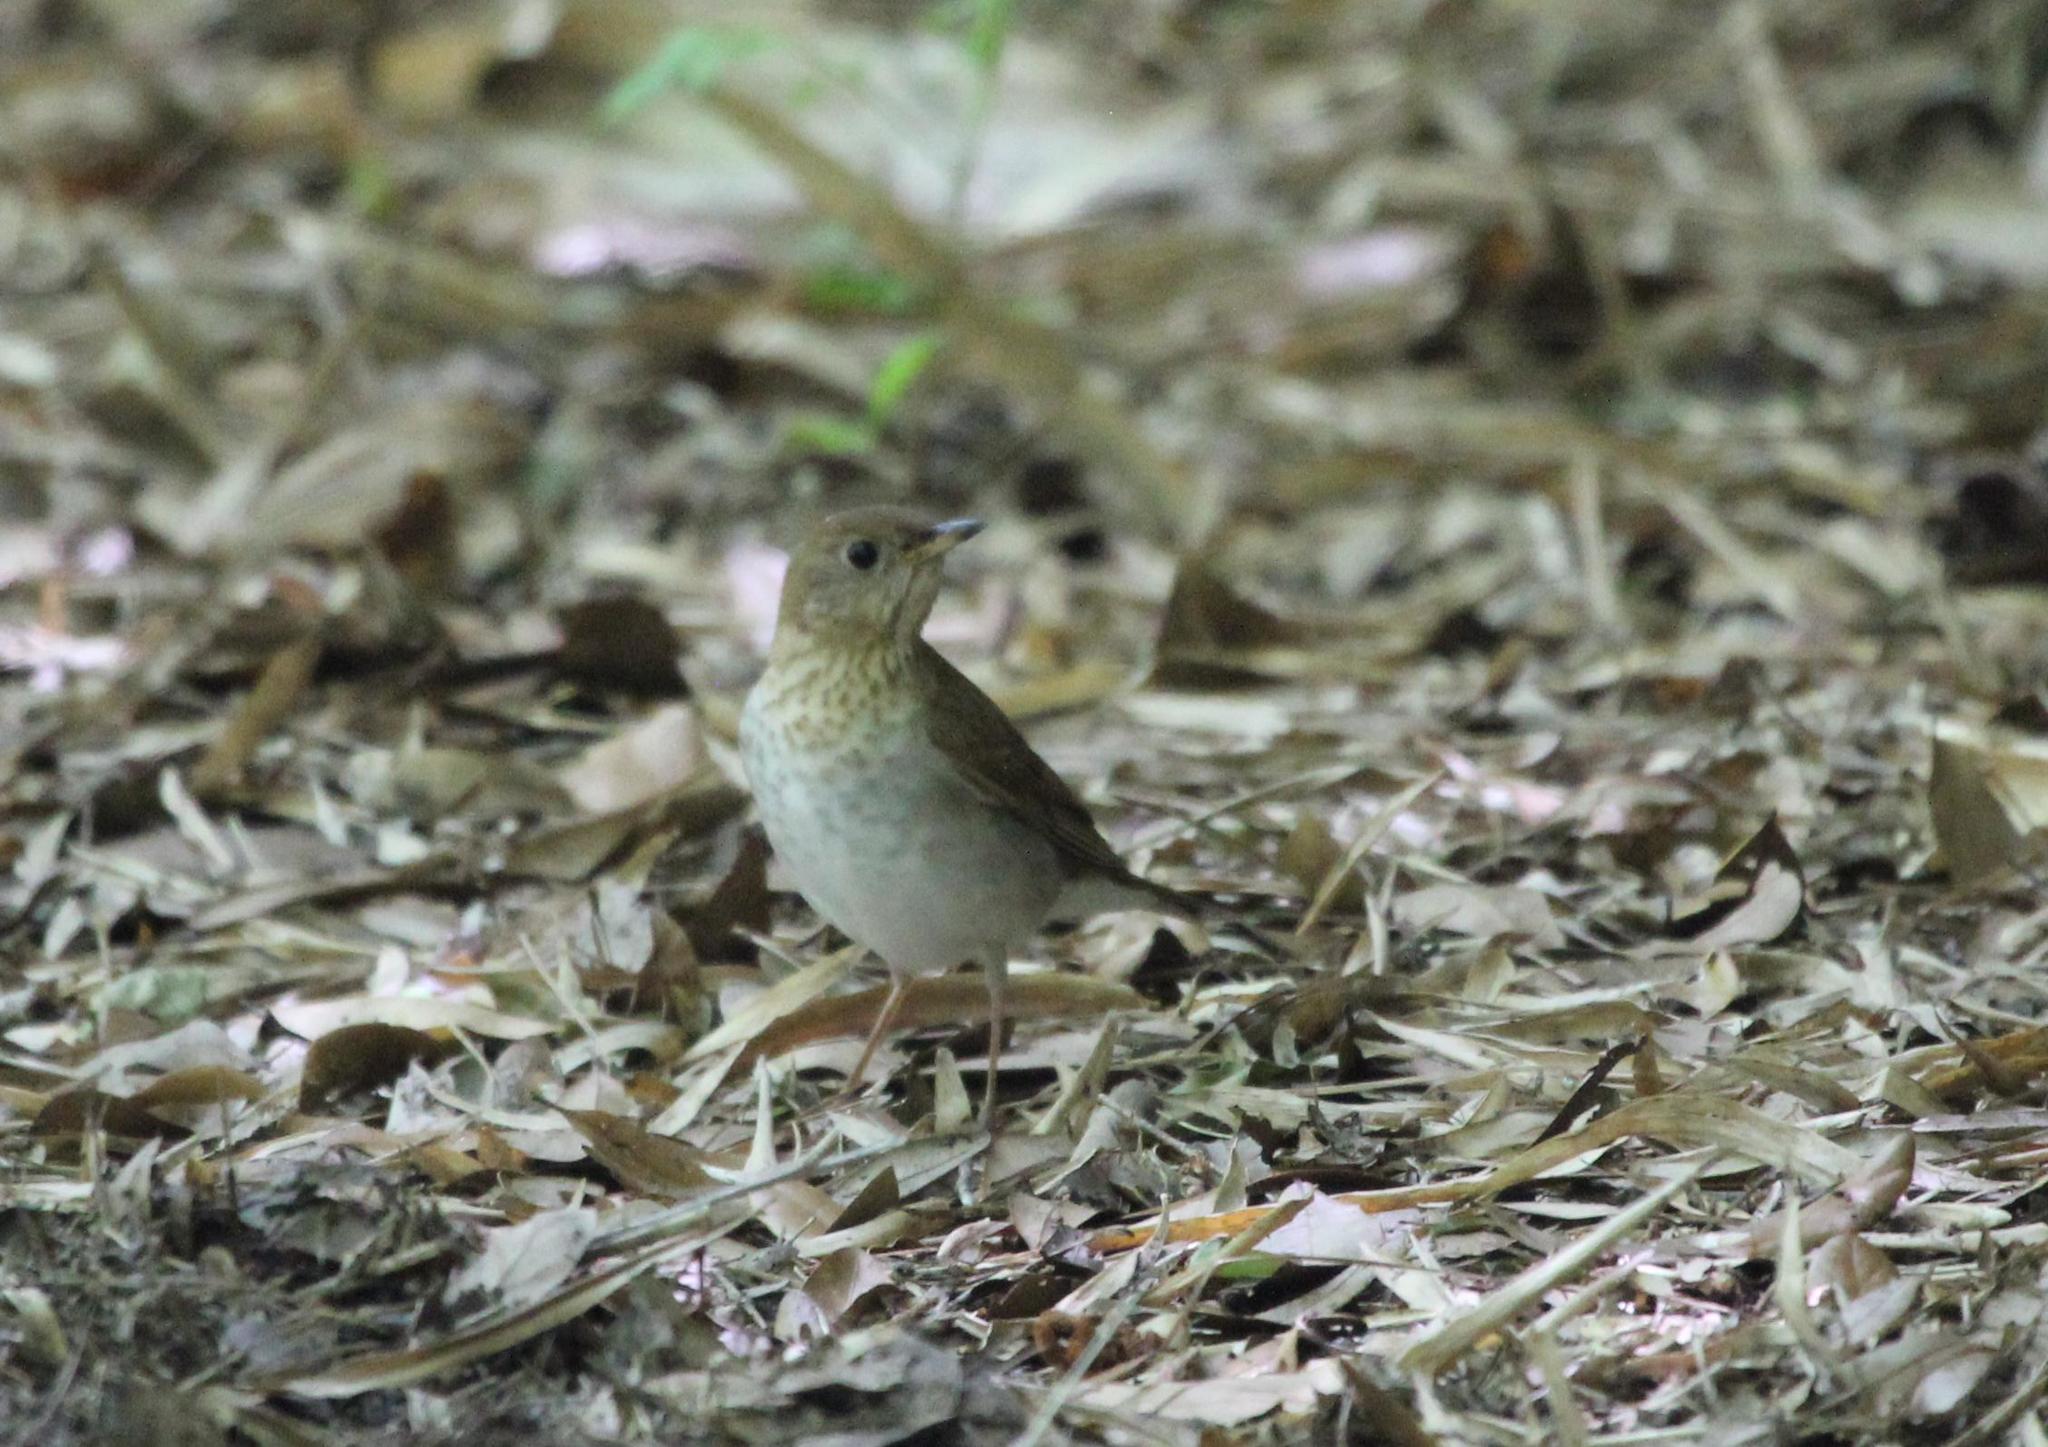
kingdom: Animalia
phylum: Chordata
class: Aves
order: Passeriformes
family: Turdidae
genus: Catharus
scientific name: Catharus fuscescens
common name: Veery
